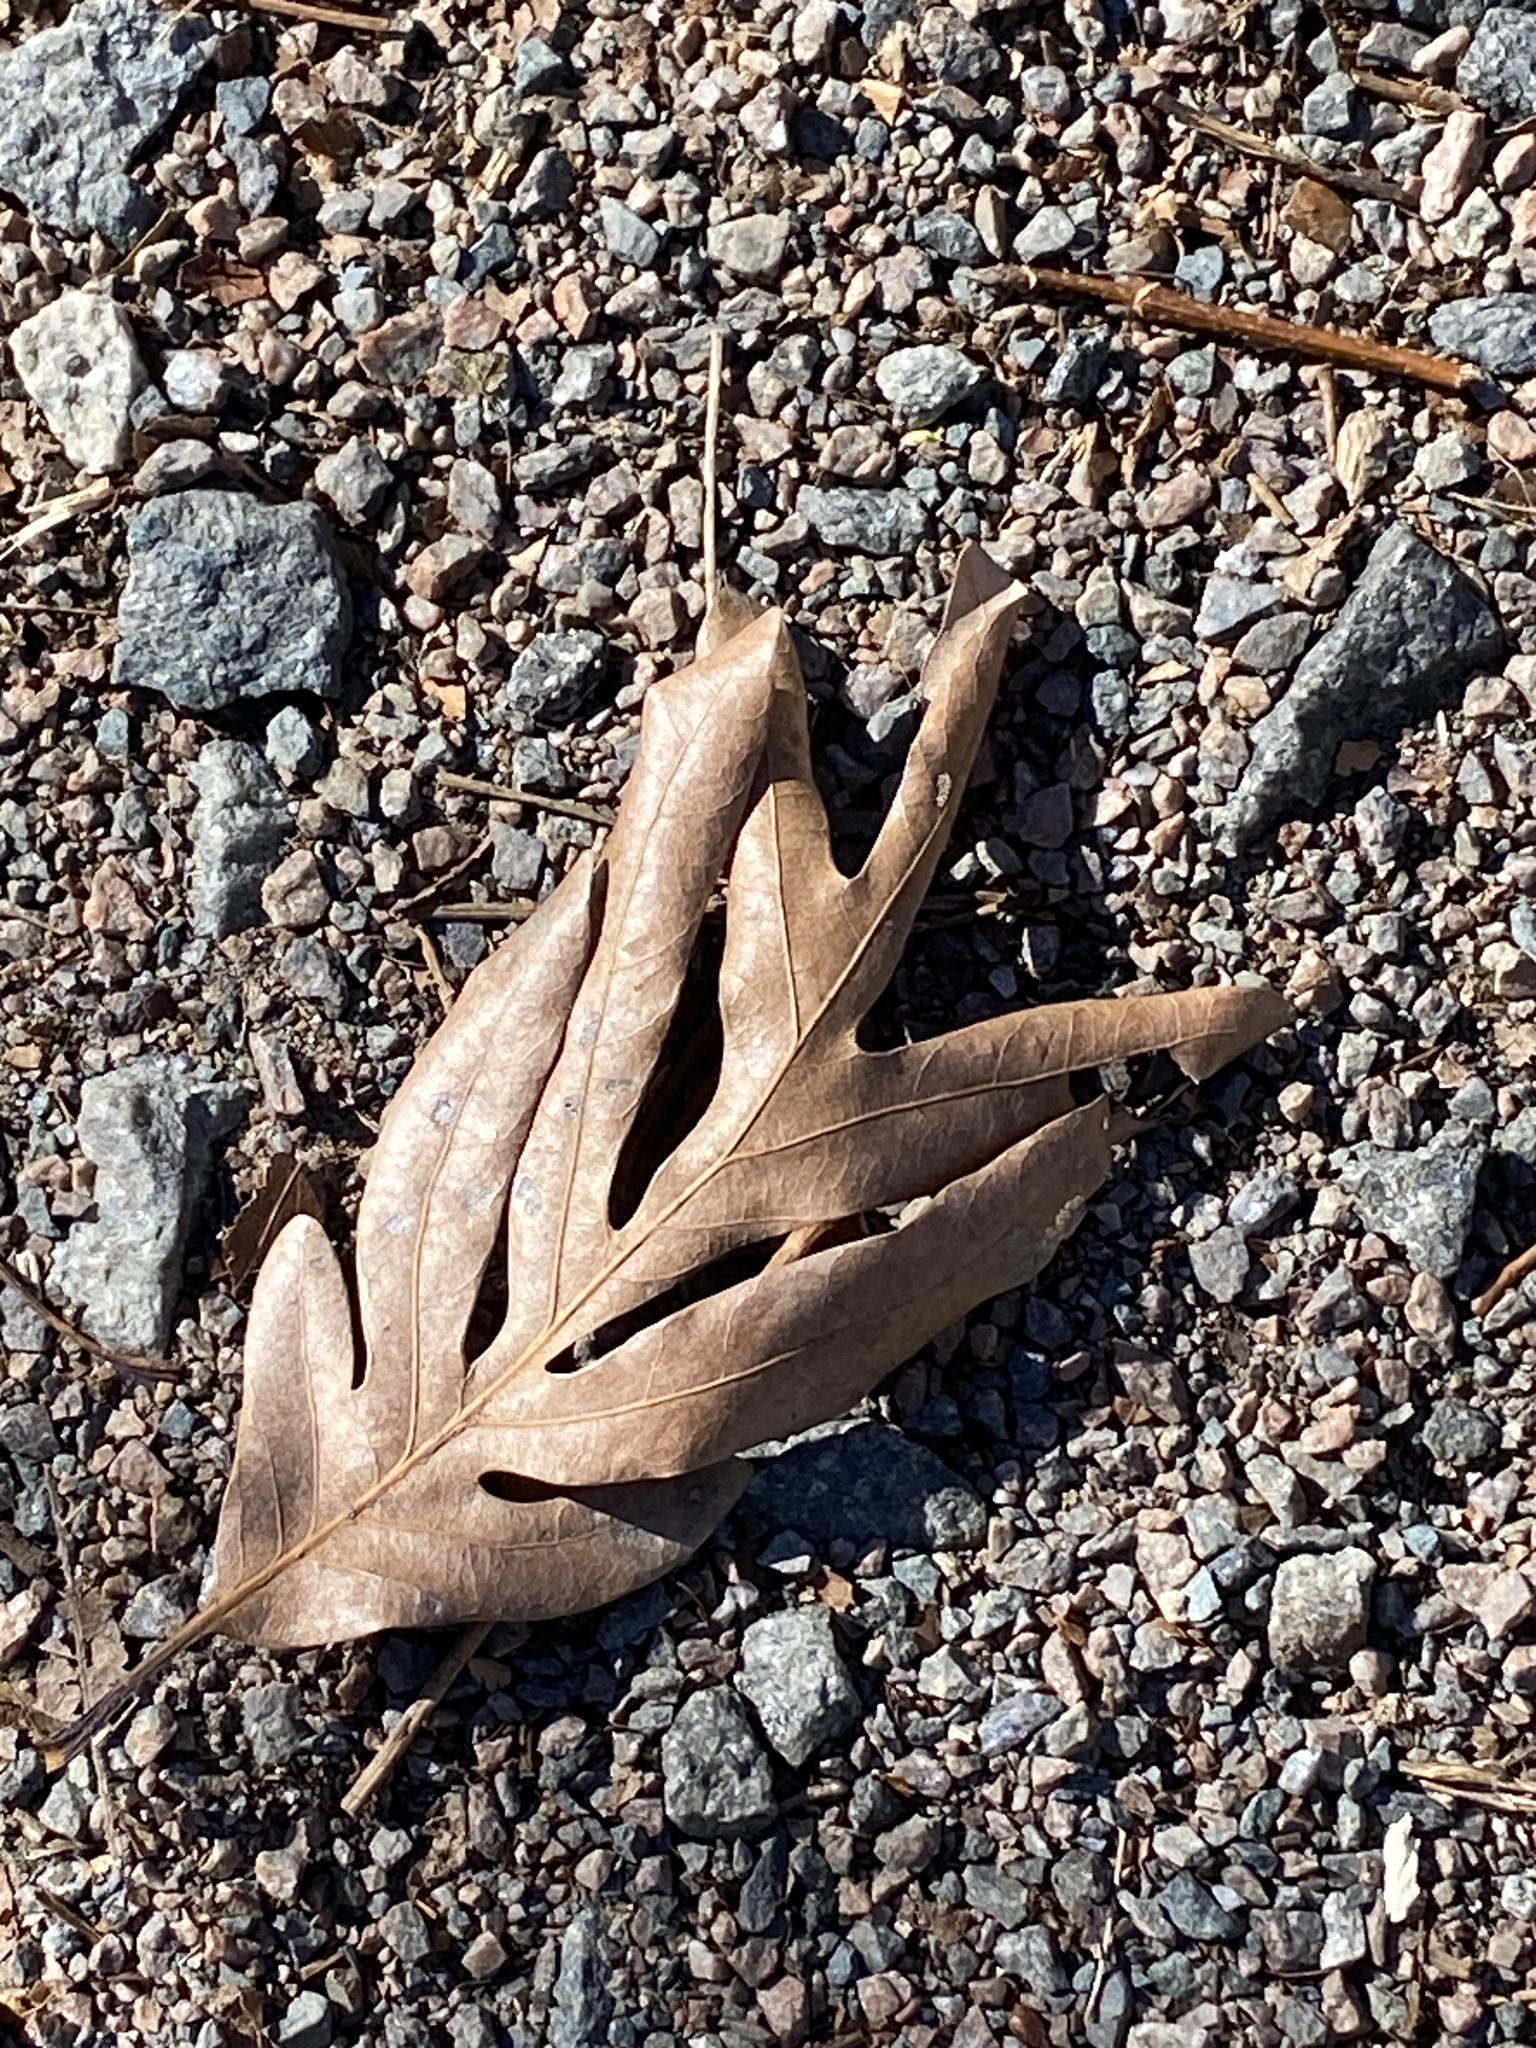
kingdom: Plantae
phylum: Tracheophyta
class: Magnoliopsida
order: Fagales
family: Fagaceae
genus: Quercus
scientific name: Quercus alba
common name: White oak
